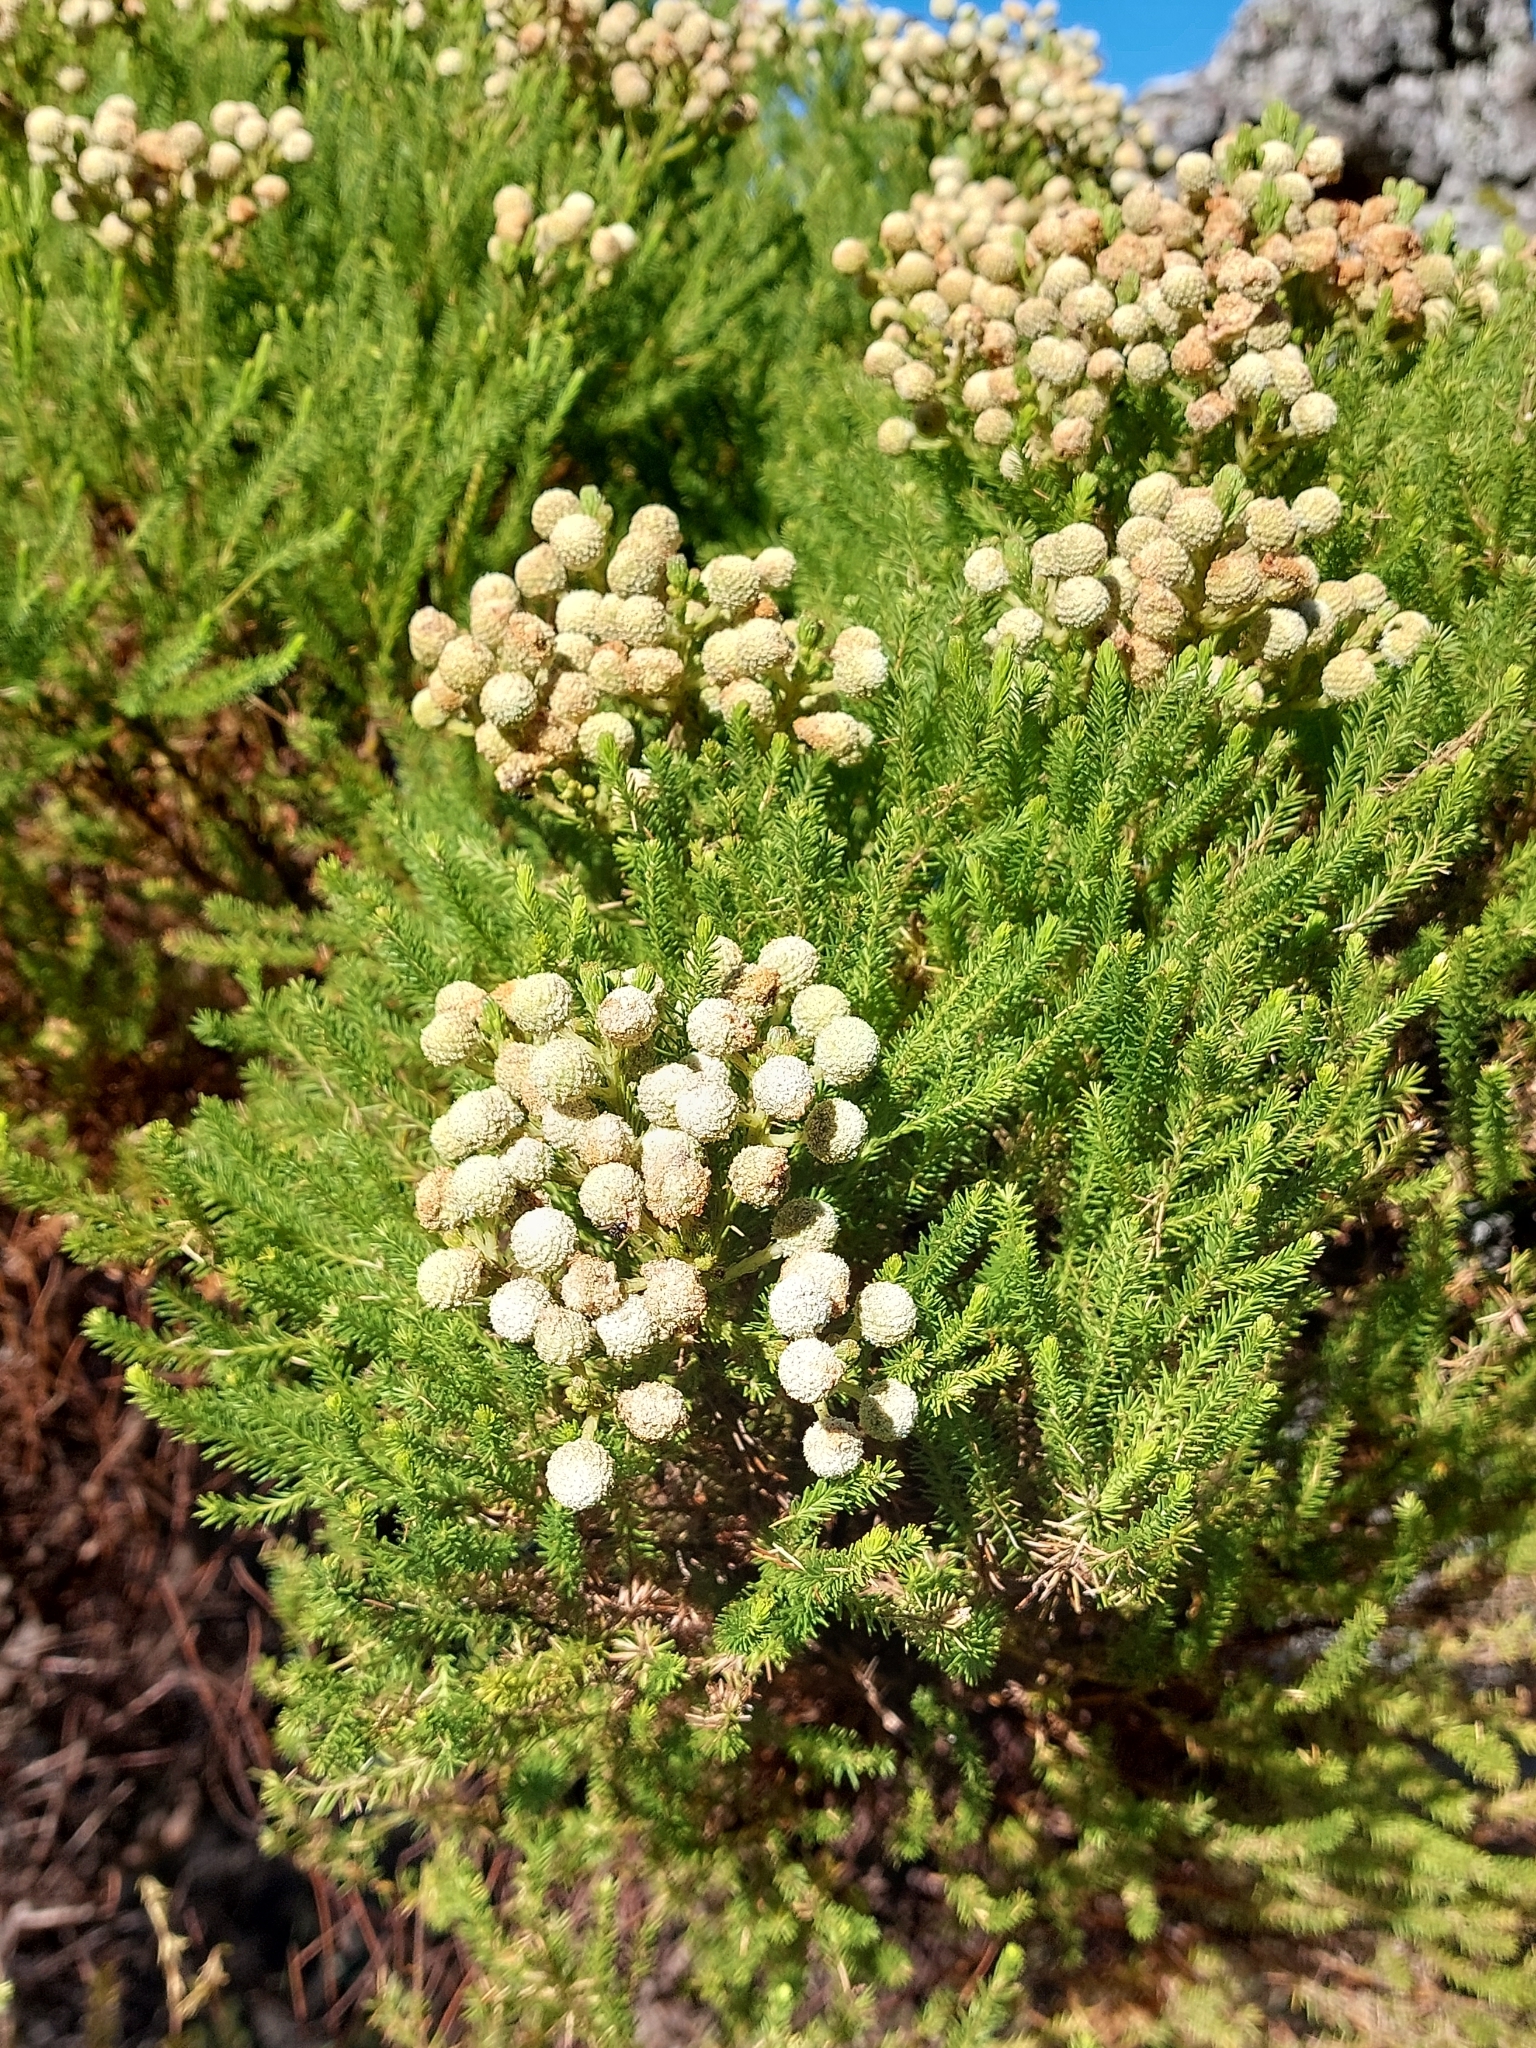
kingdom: Plantae
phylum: Tracheophyta
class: Magnoliopsida
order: Bruniales
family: Bruniaceae
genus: Berzelia
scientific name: Berzelia lanuginosa
